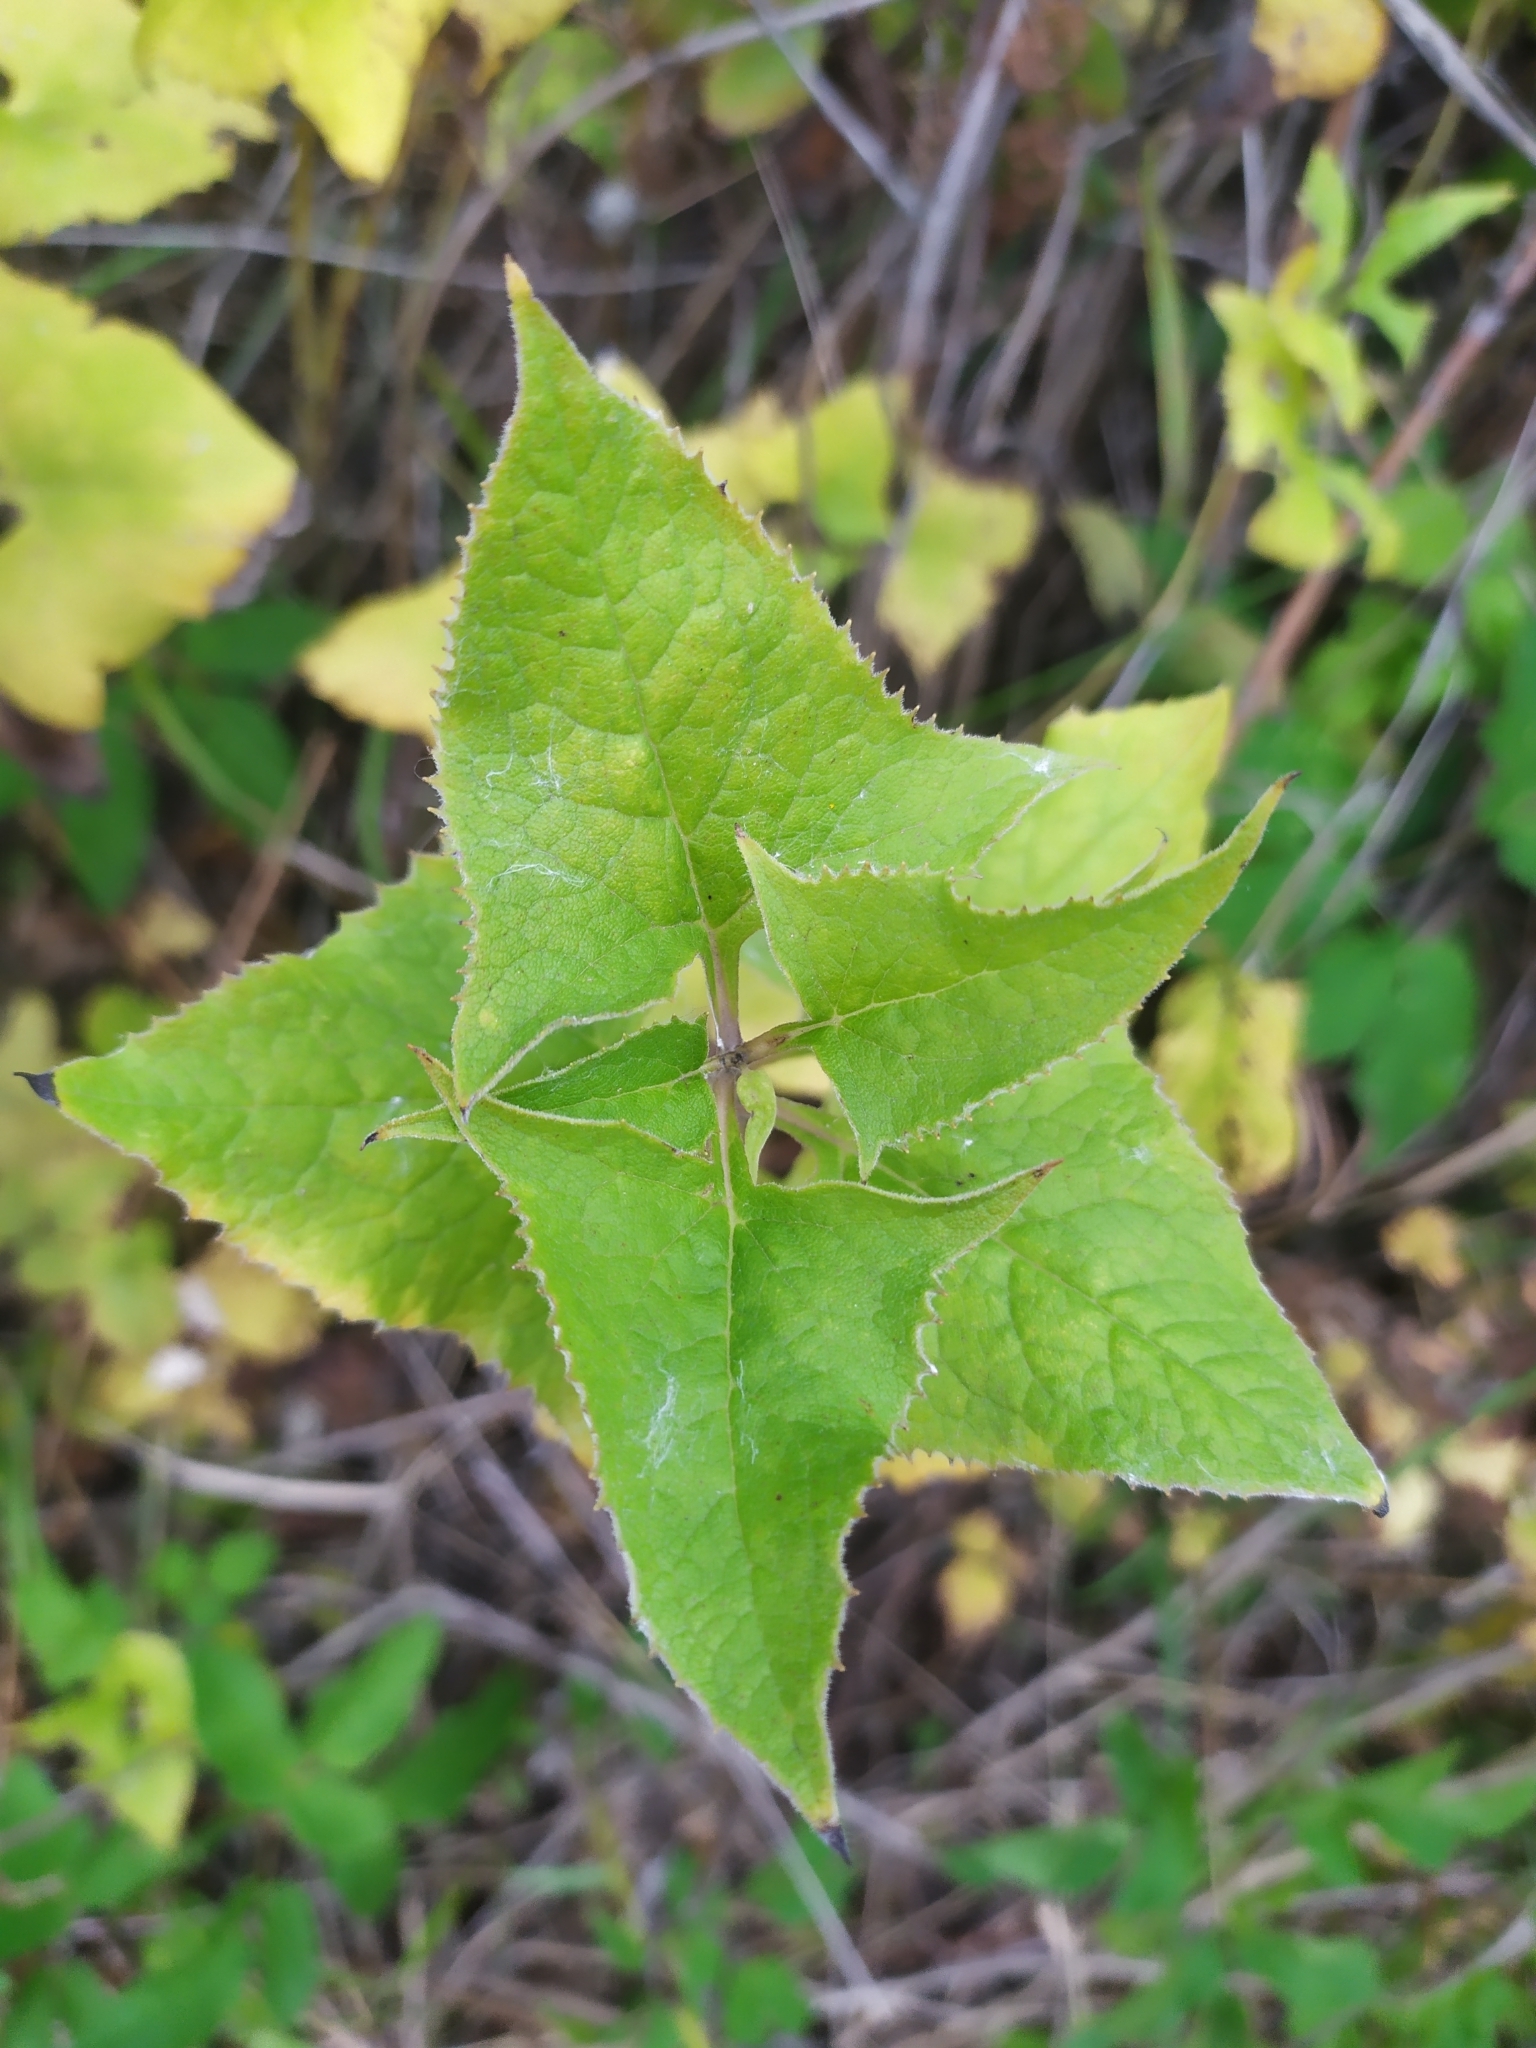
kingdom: Plantae
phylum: Tracheophyta
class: Magnoliopsida
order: Asterales
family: Asteraceae
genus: Parasenecio
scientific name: Parasenecio hastatus
